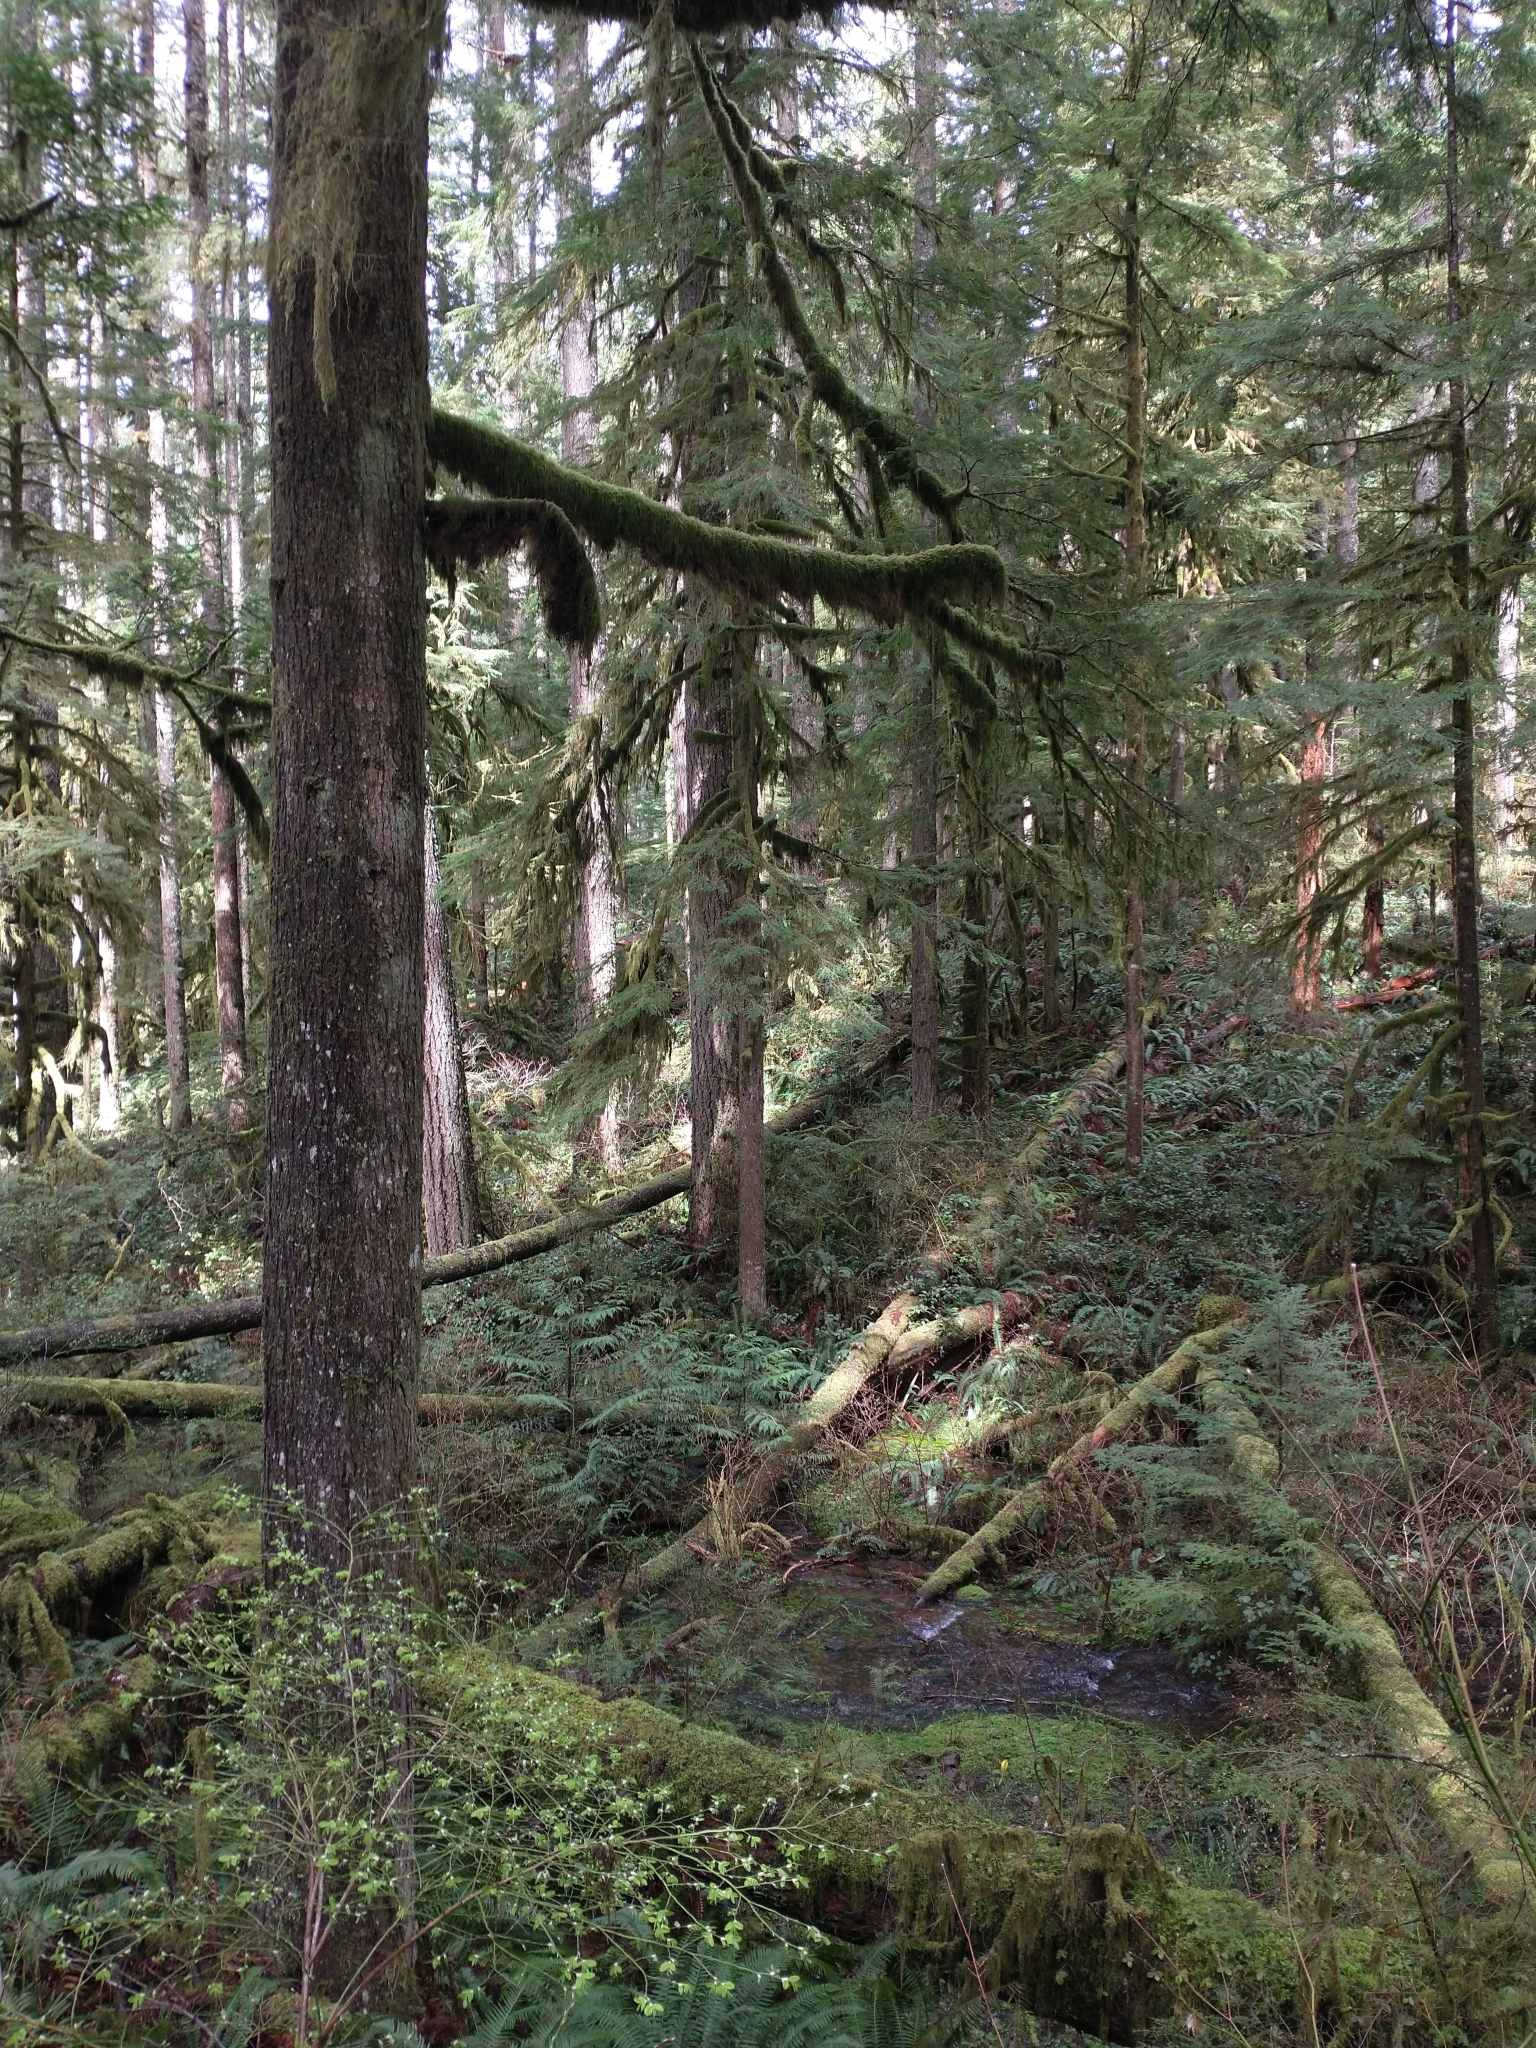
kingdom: Plantae
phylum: Tracheophyta
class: Pinopsida
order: Pinales
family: Pinaceae
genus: Tsuga
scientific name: Tsuga heterophylla
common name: Western hemlock
